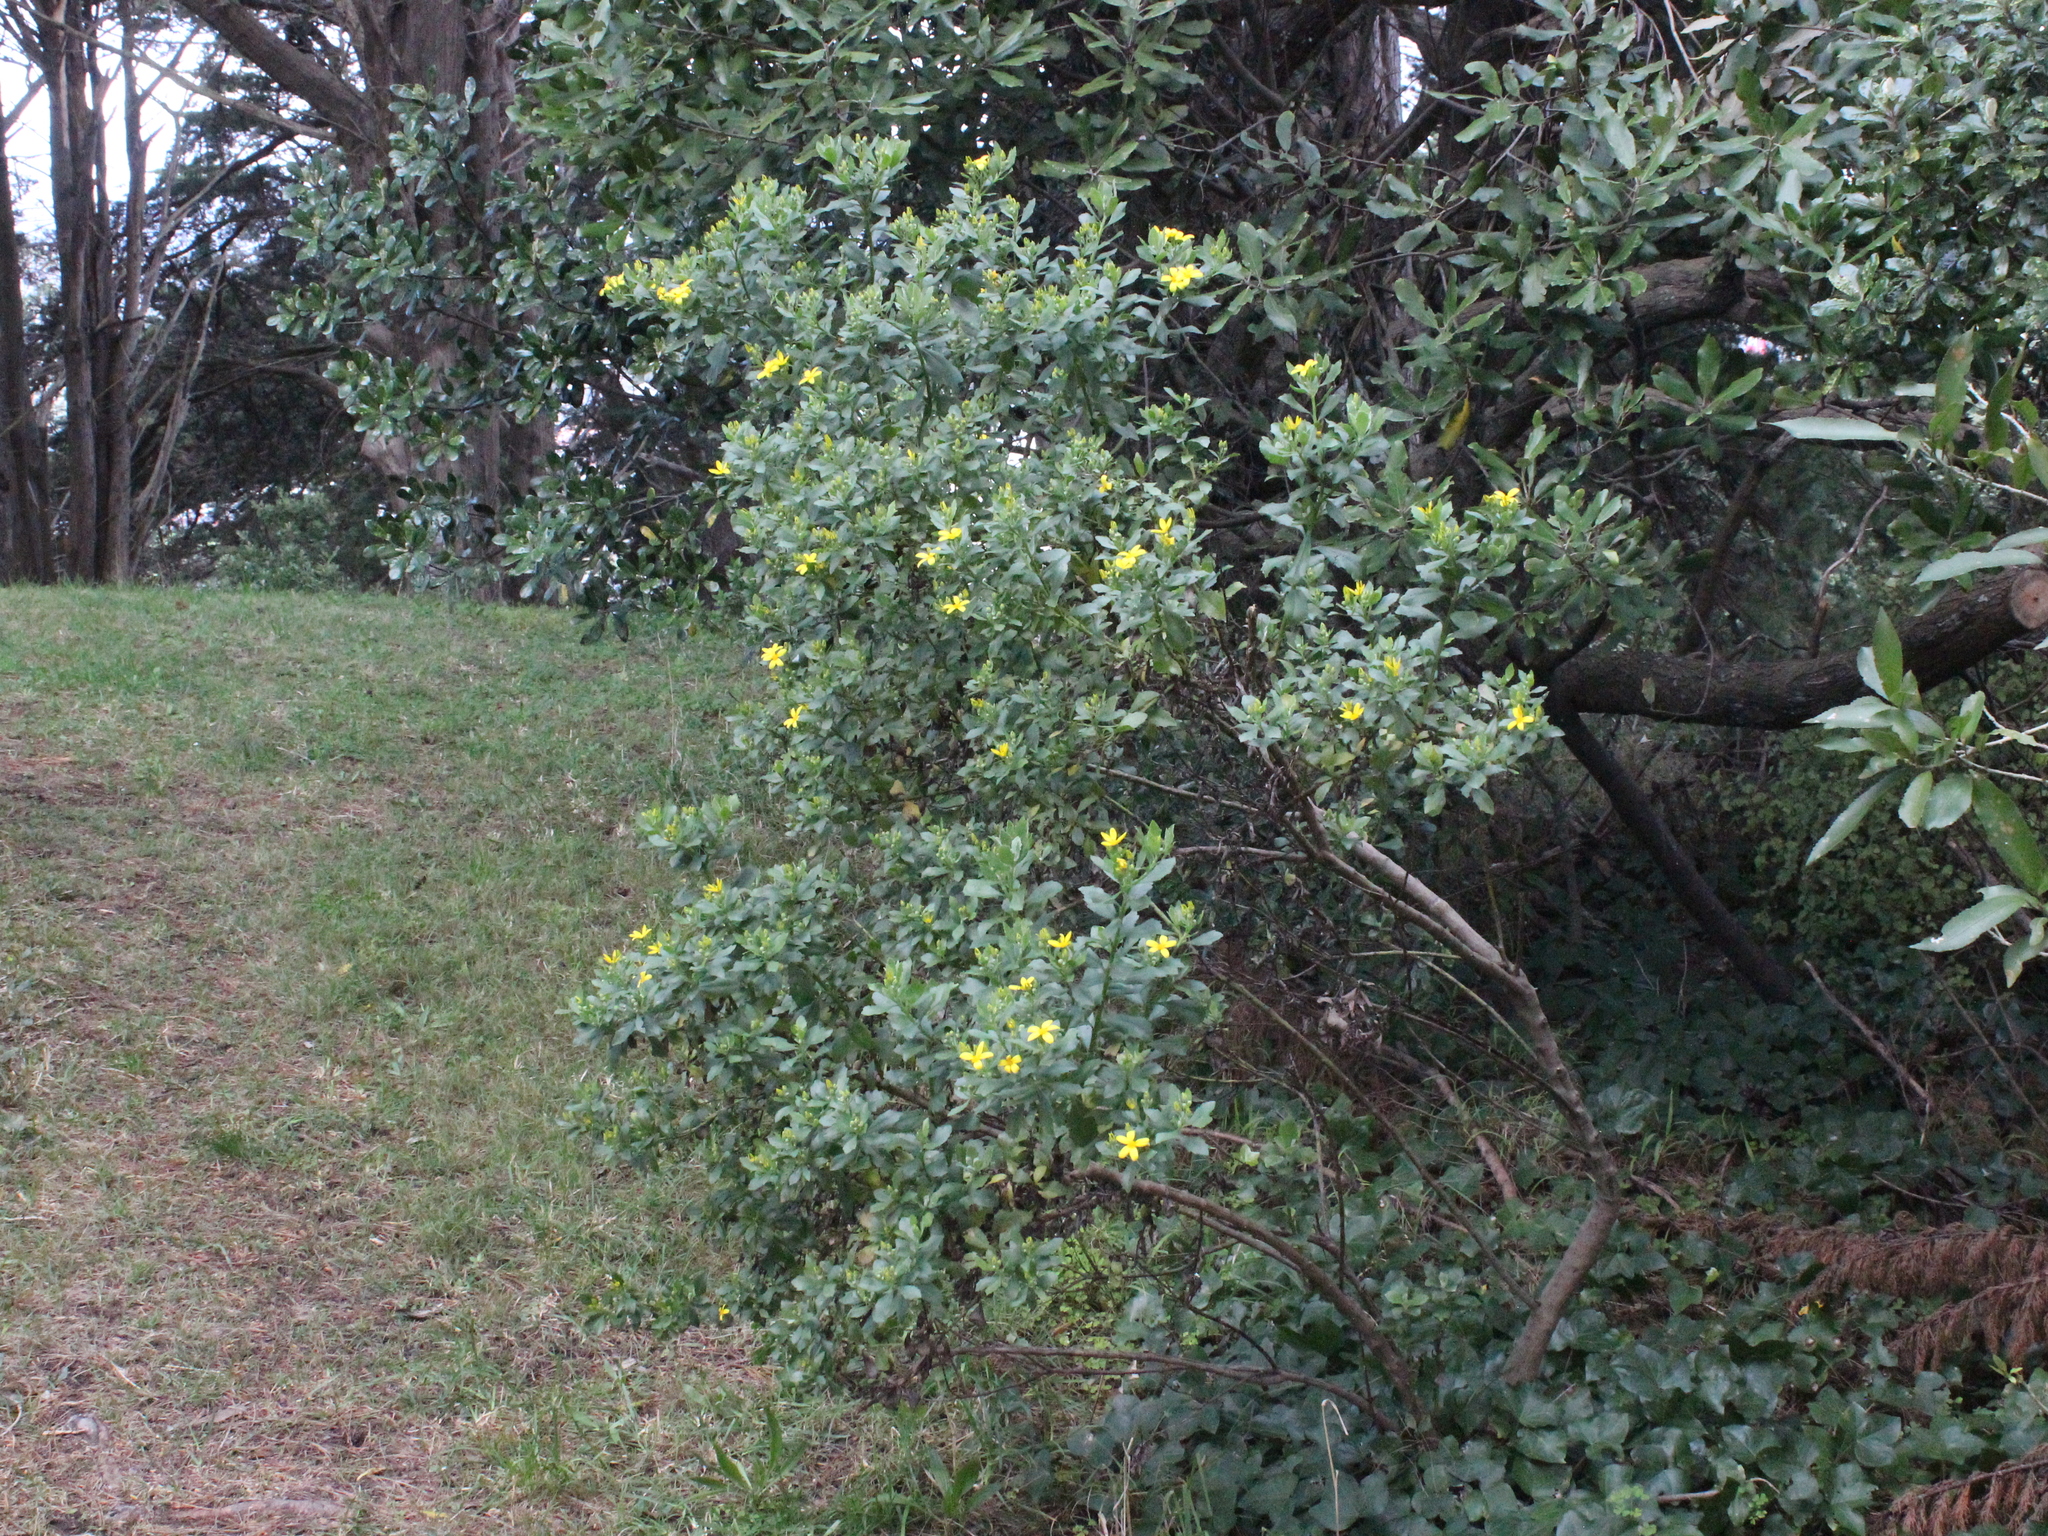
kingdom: Plantae
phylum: Tracheophyta
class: Magnoliopsida
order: Asterales
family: Asteraceae
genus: Osteospermum
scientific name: Osteospermum moniliferum
